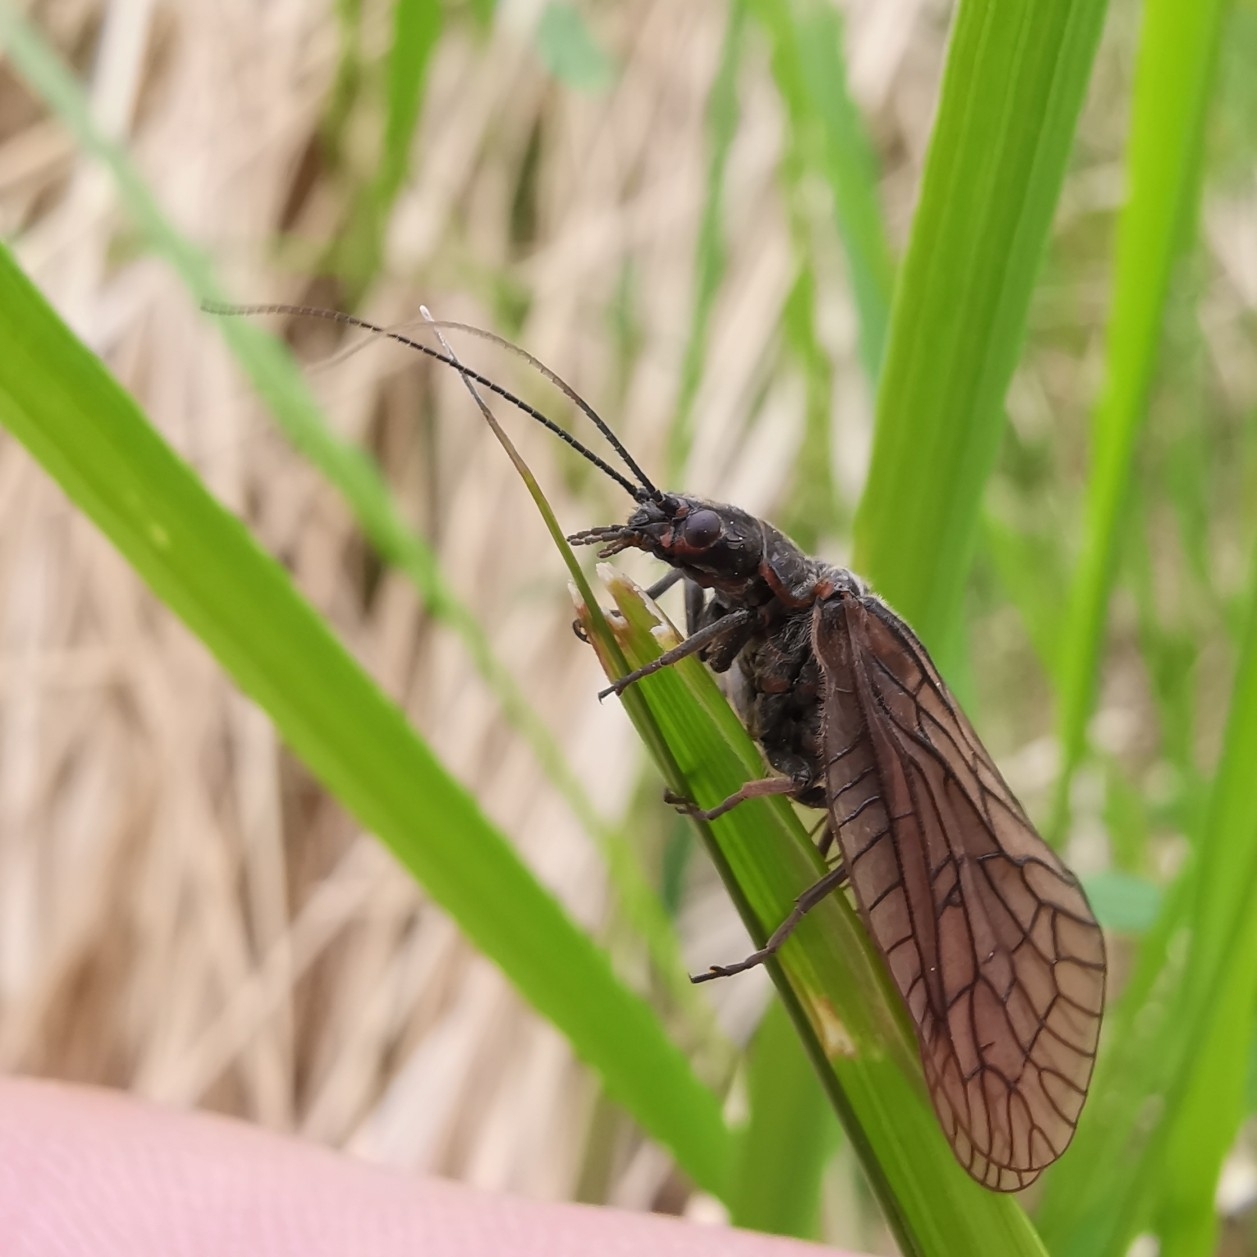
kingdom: Animalia
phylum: Arthropoda
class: Insecta
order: Megaloptera
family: Sialidae
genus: Sialis
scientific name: Sialis
